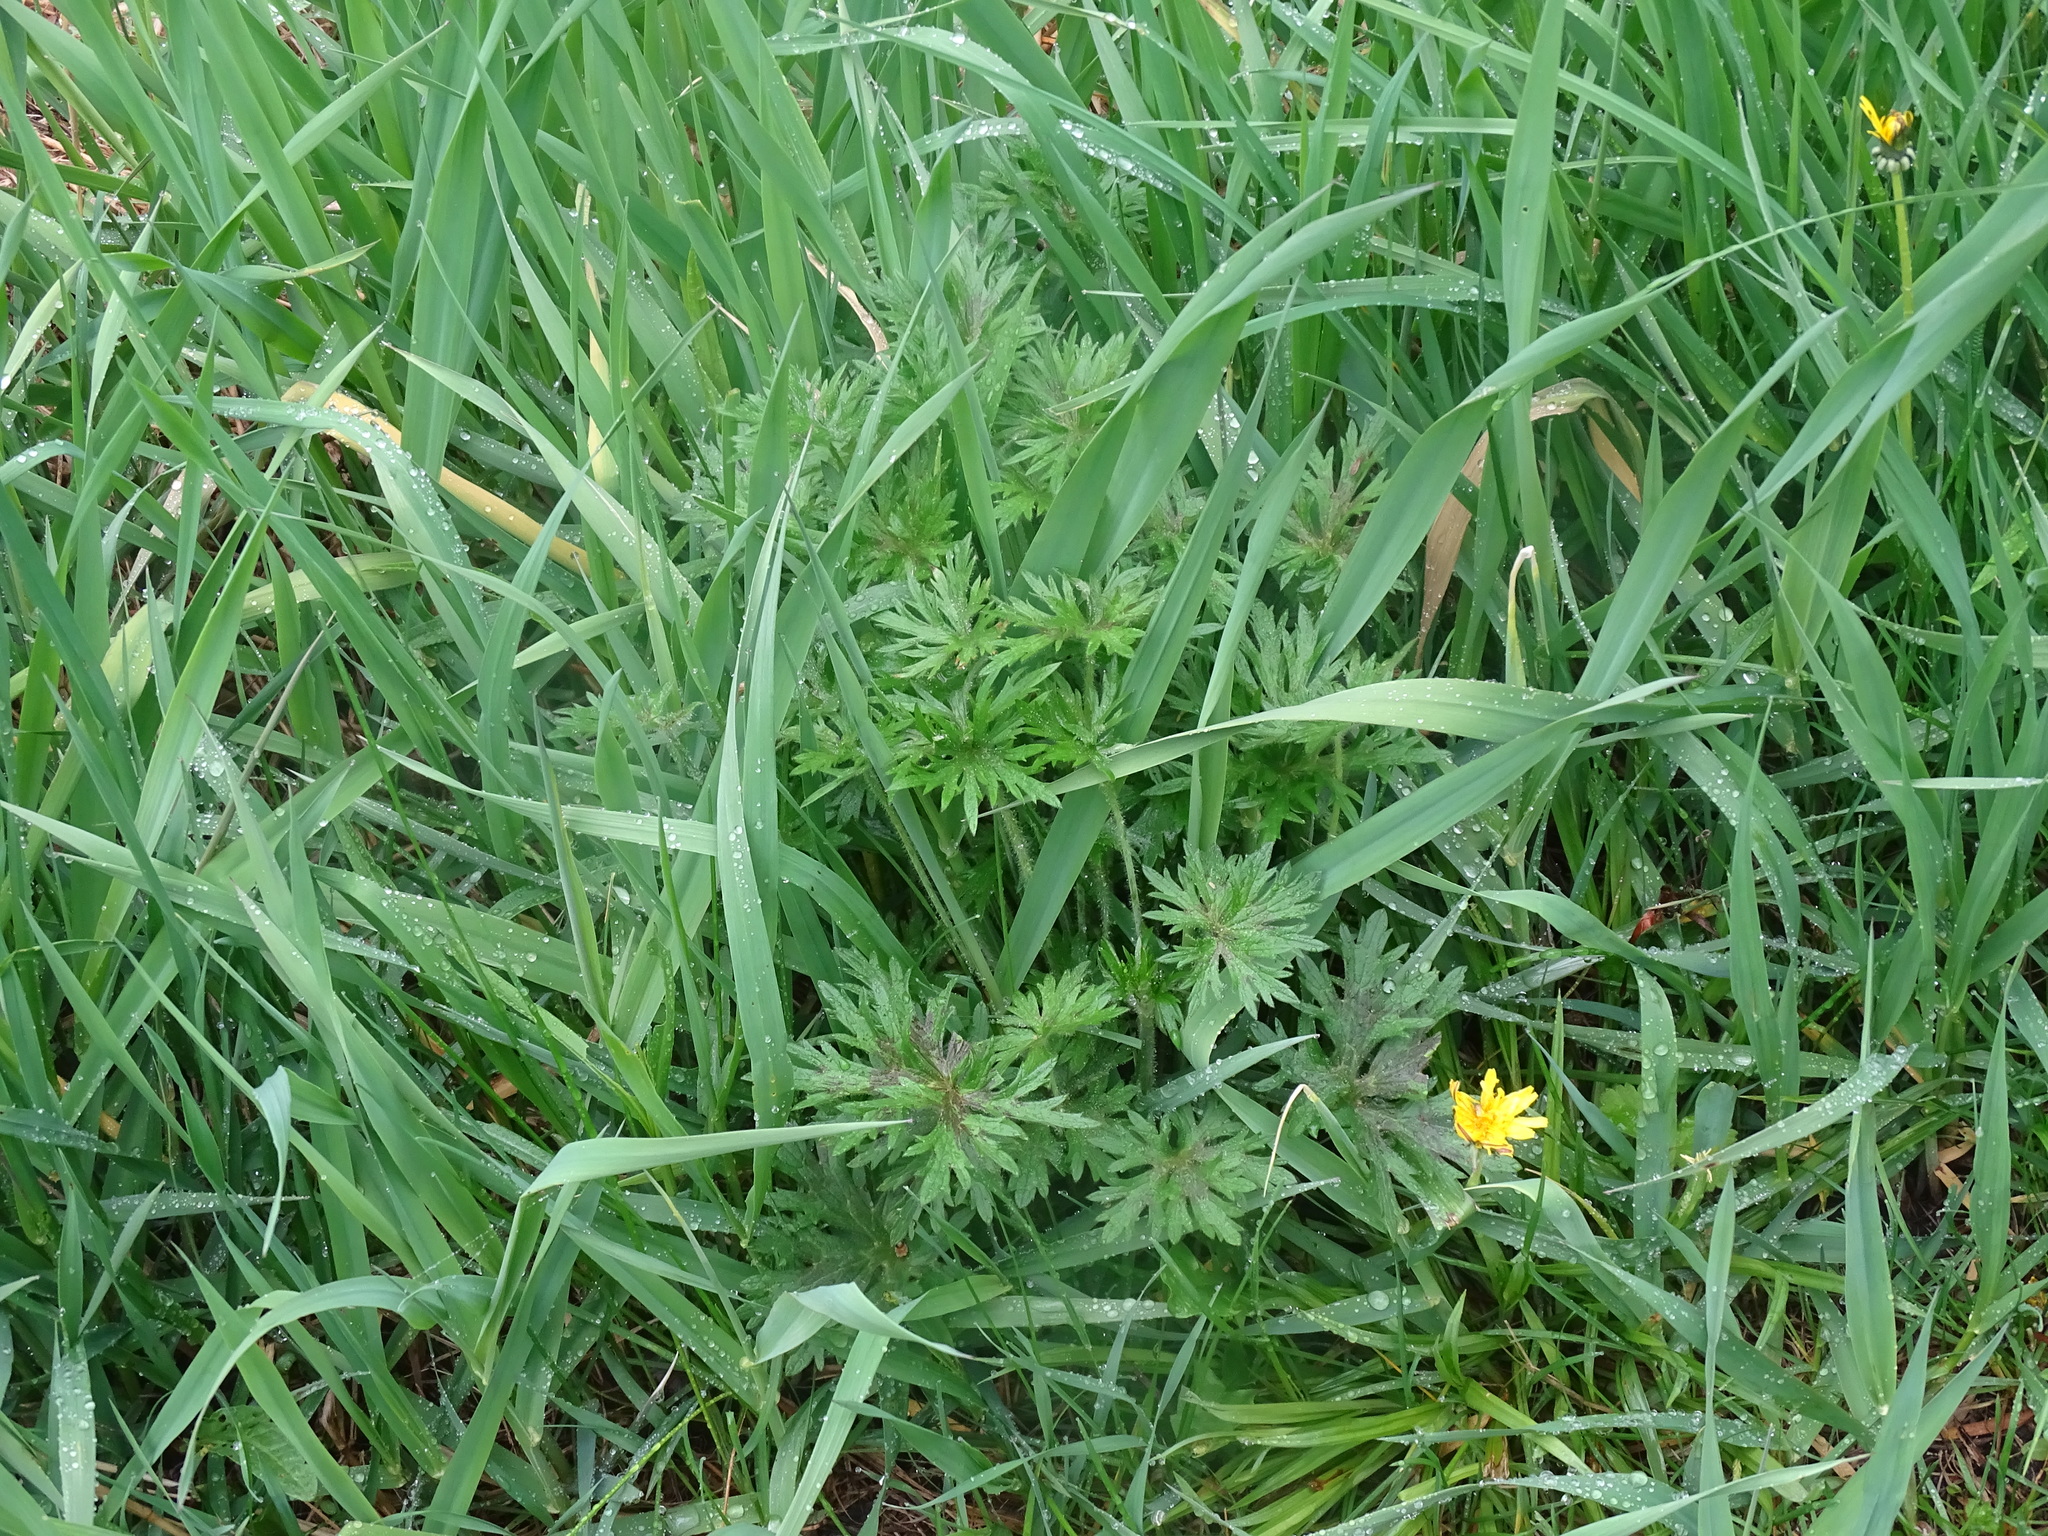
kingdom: Plantae
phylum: Tracheophyta
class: Magnoliopsida
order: Ranunculales
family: Ranunculaceae
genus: Ranunculus
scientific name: Ranunculus acris
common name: Meadow buttercup
